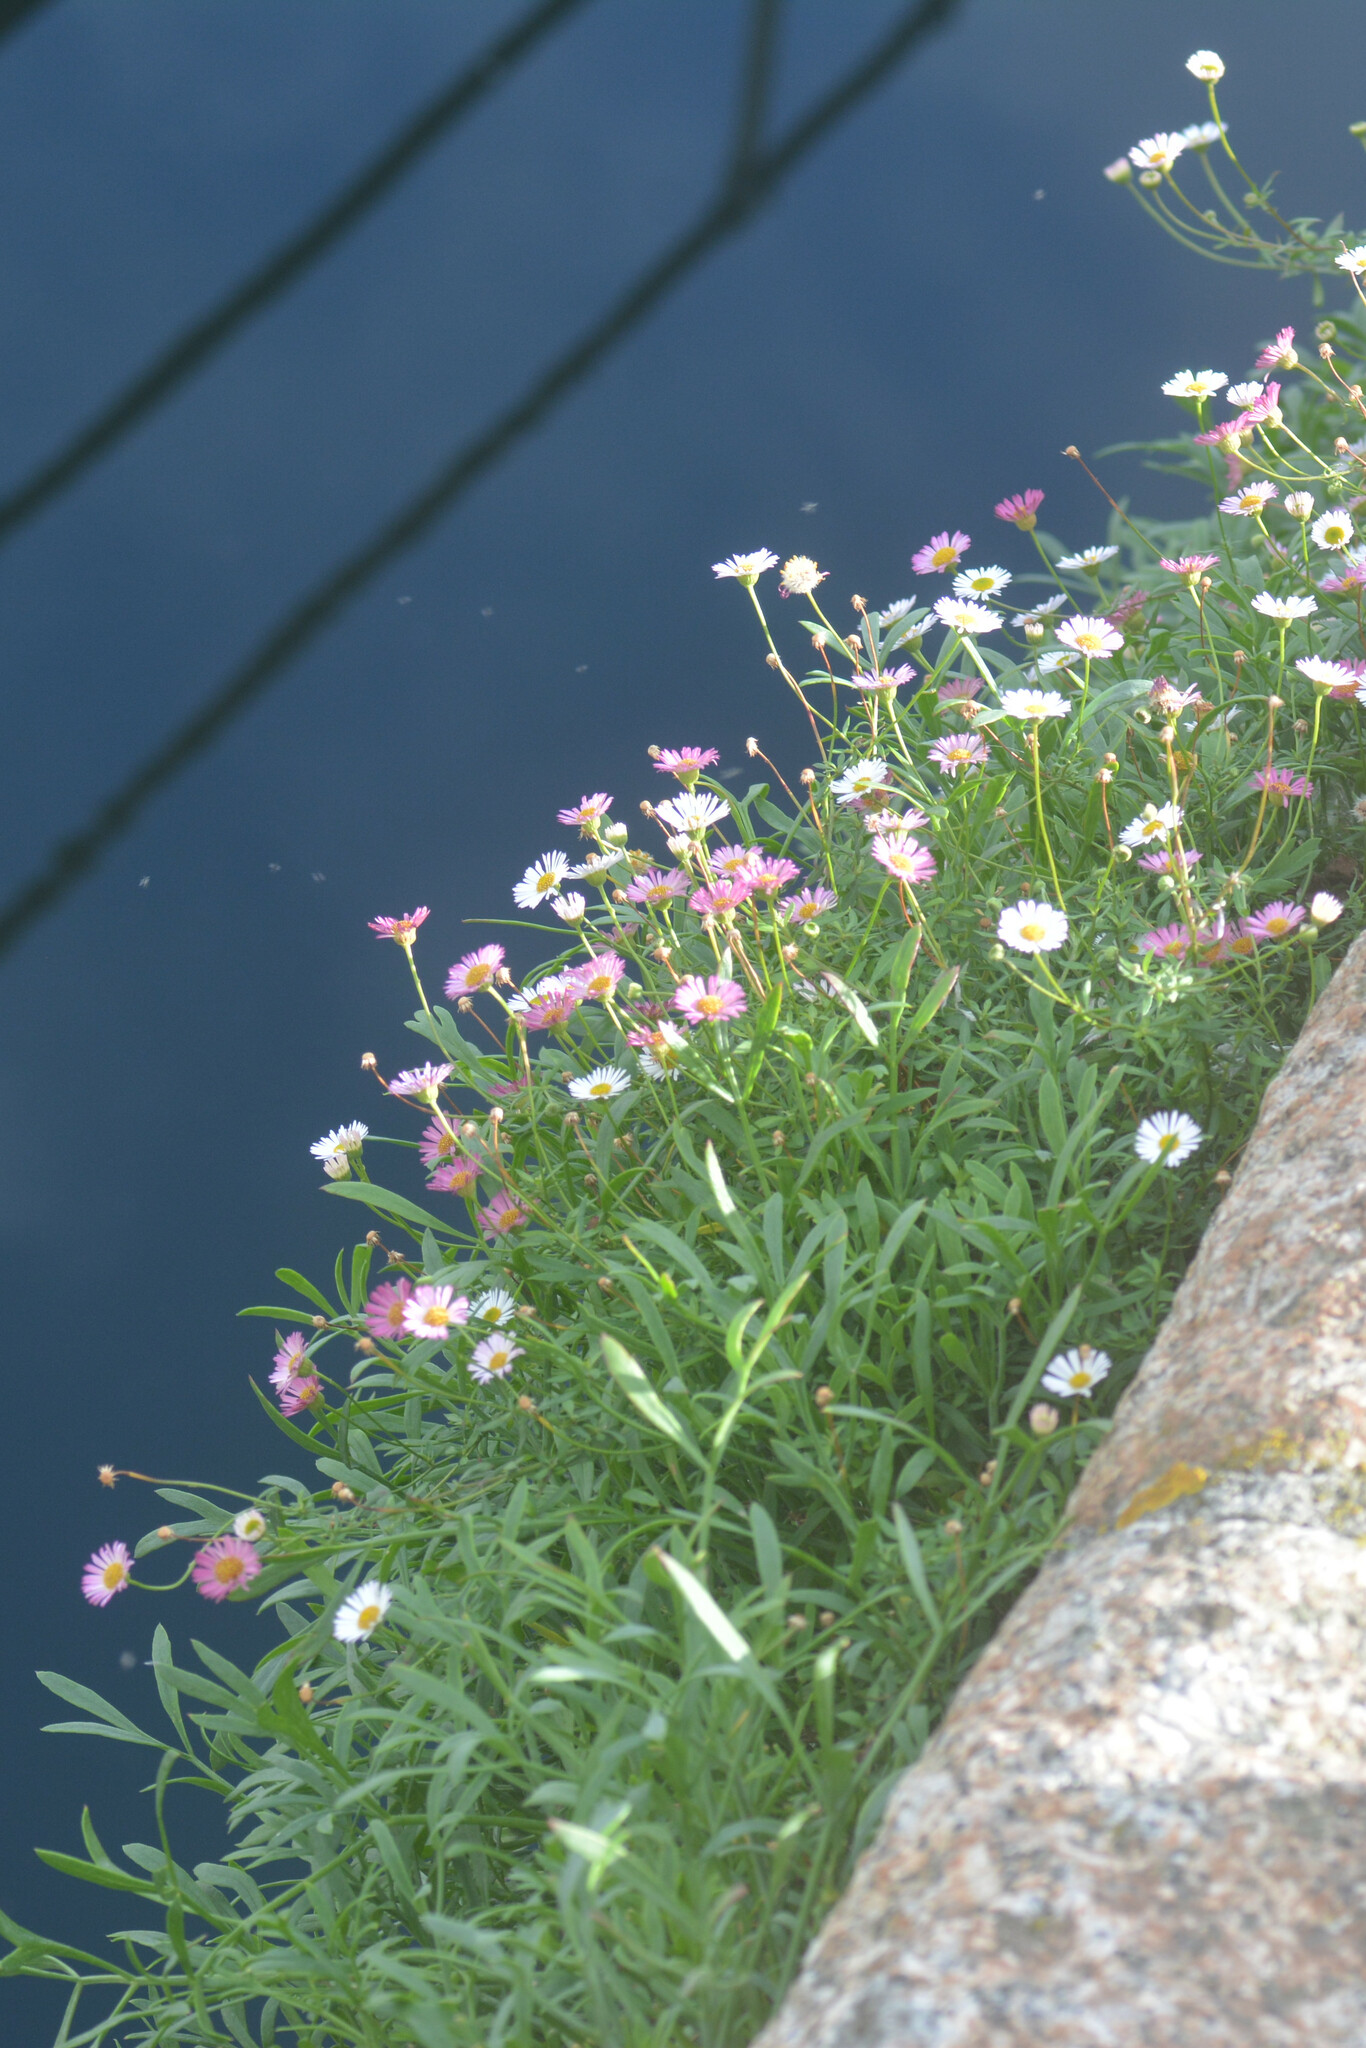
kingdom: Plantae
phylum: Tracheophyta
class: Magnoliopsida
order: Asterales
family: Asteraceae
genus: Erigeron
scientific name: Erigeron karvinskianus
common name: Mexican fleabane
